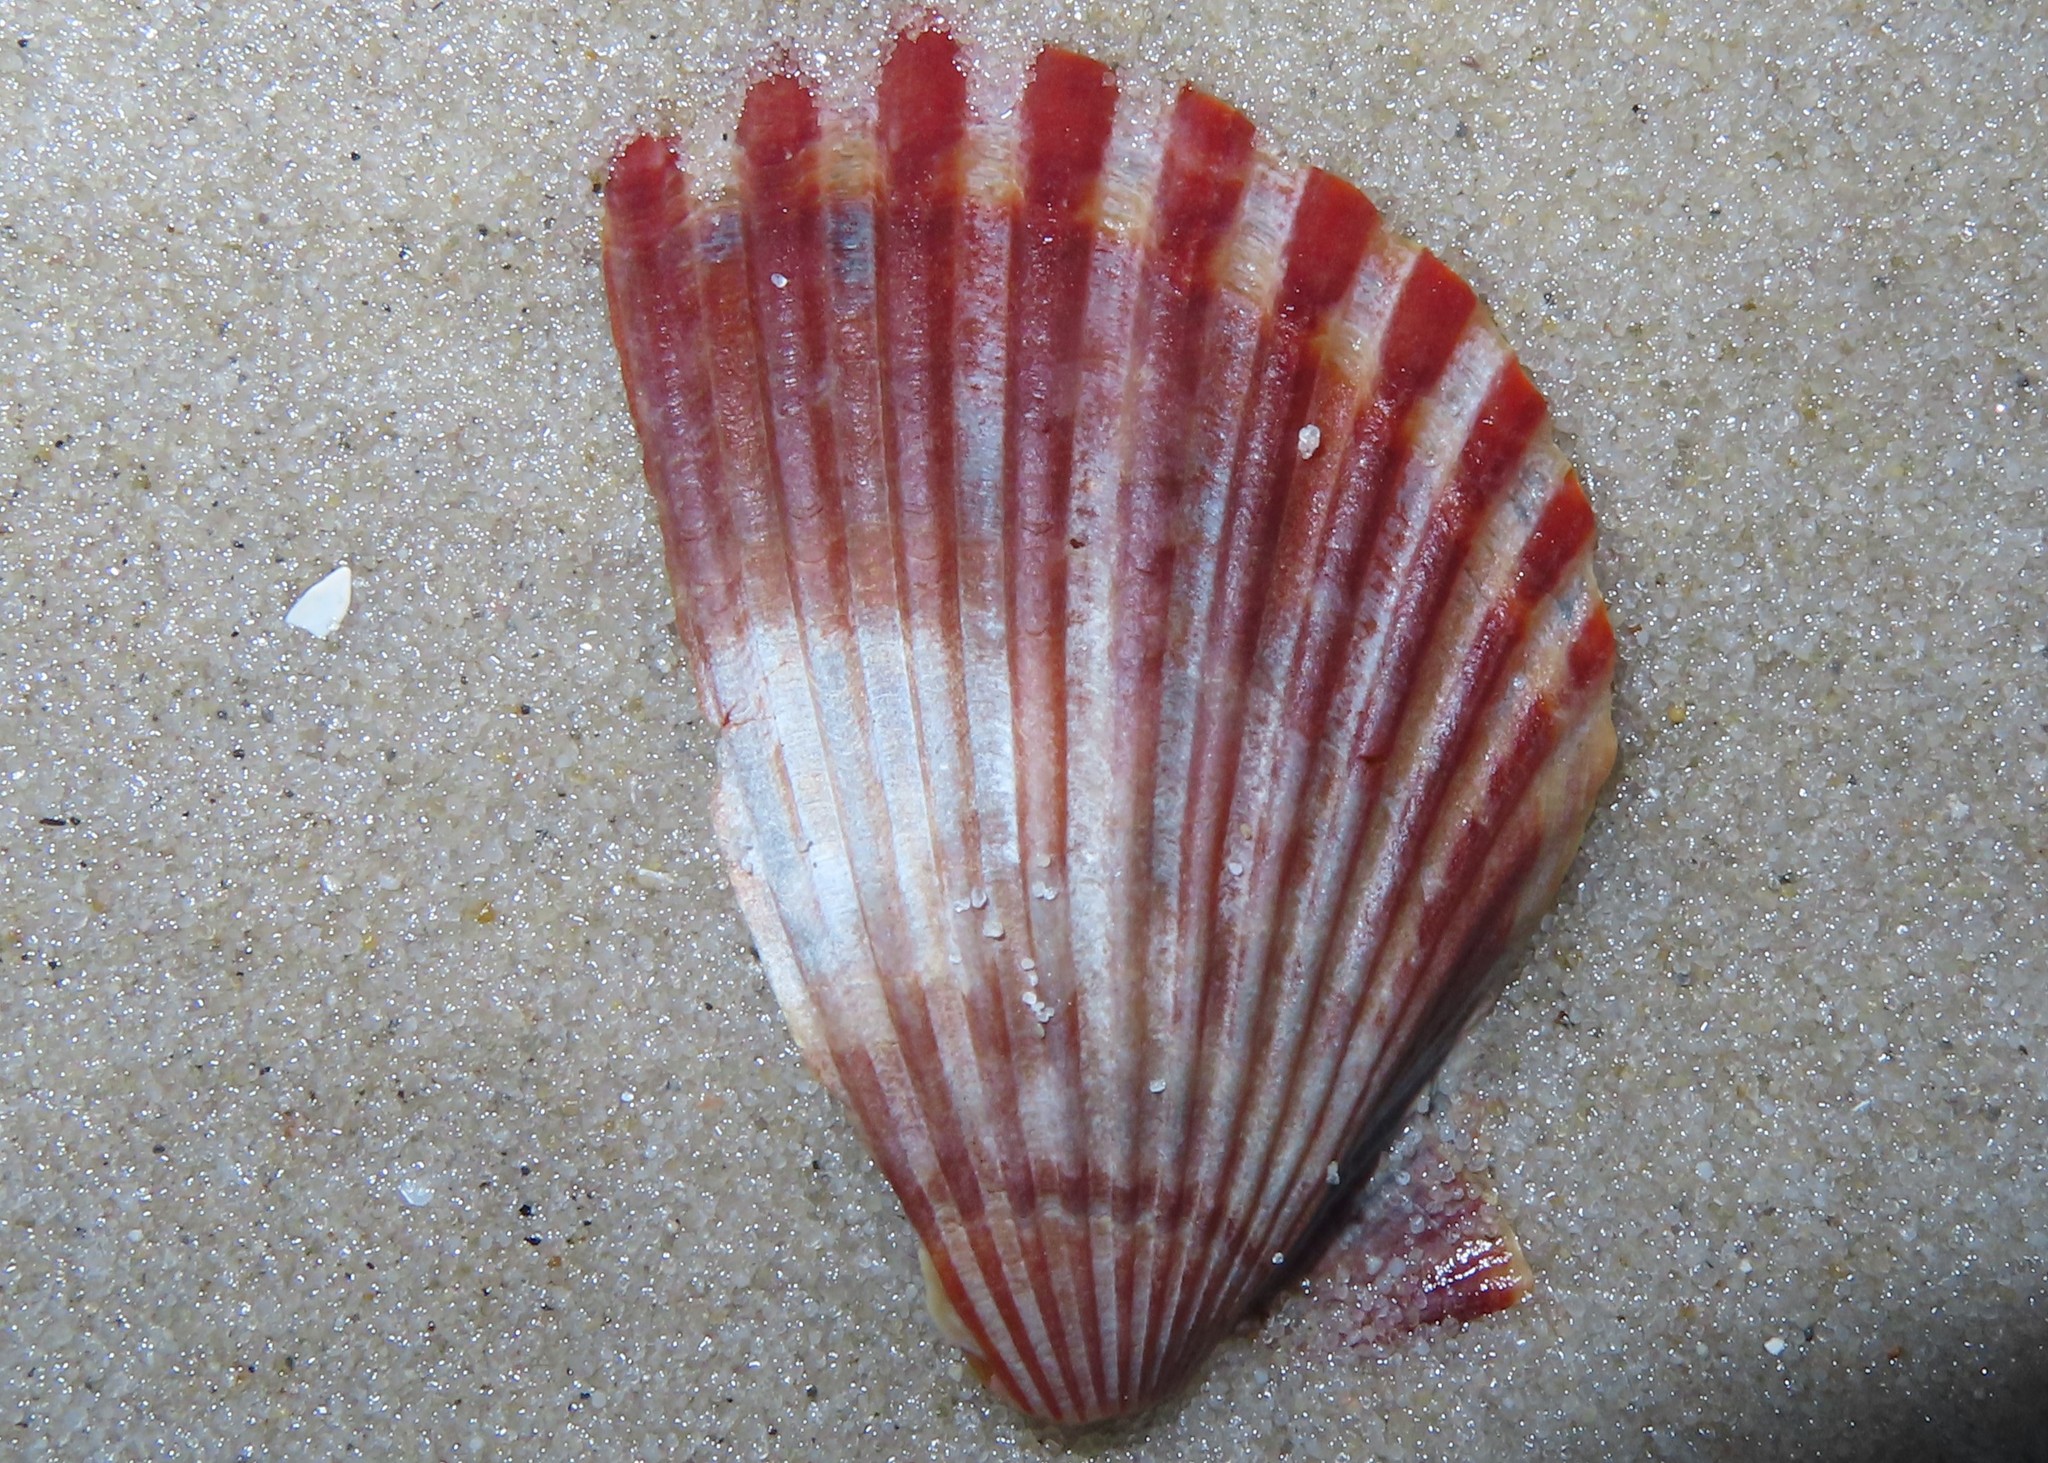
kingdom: Animalia
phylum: Mollusca
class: Bivalvia
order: Pectinida
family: Pectinidae
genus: Argopecten
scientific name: Argopecten irradians
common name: Atlantic bay scallop
